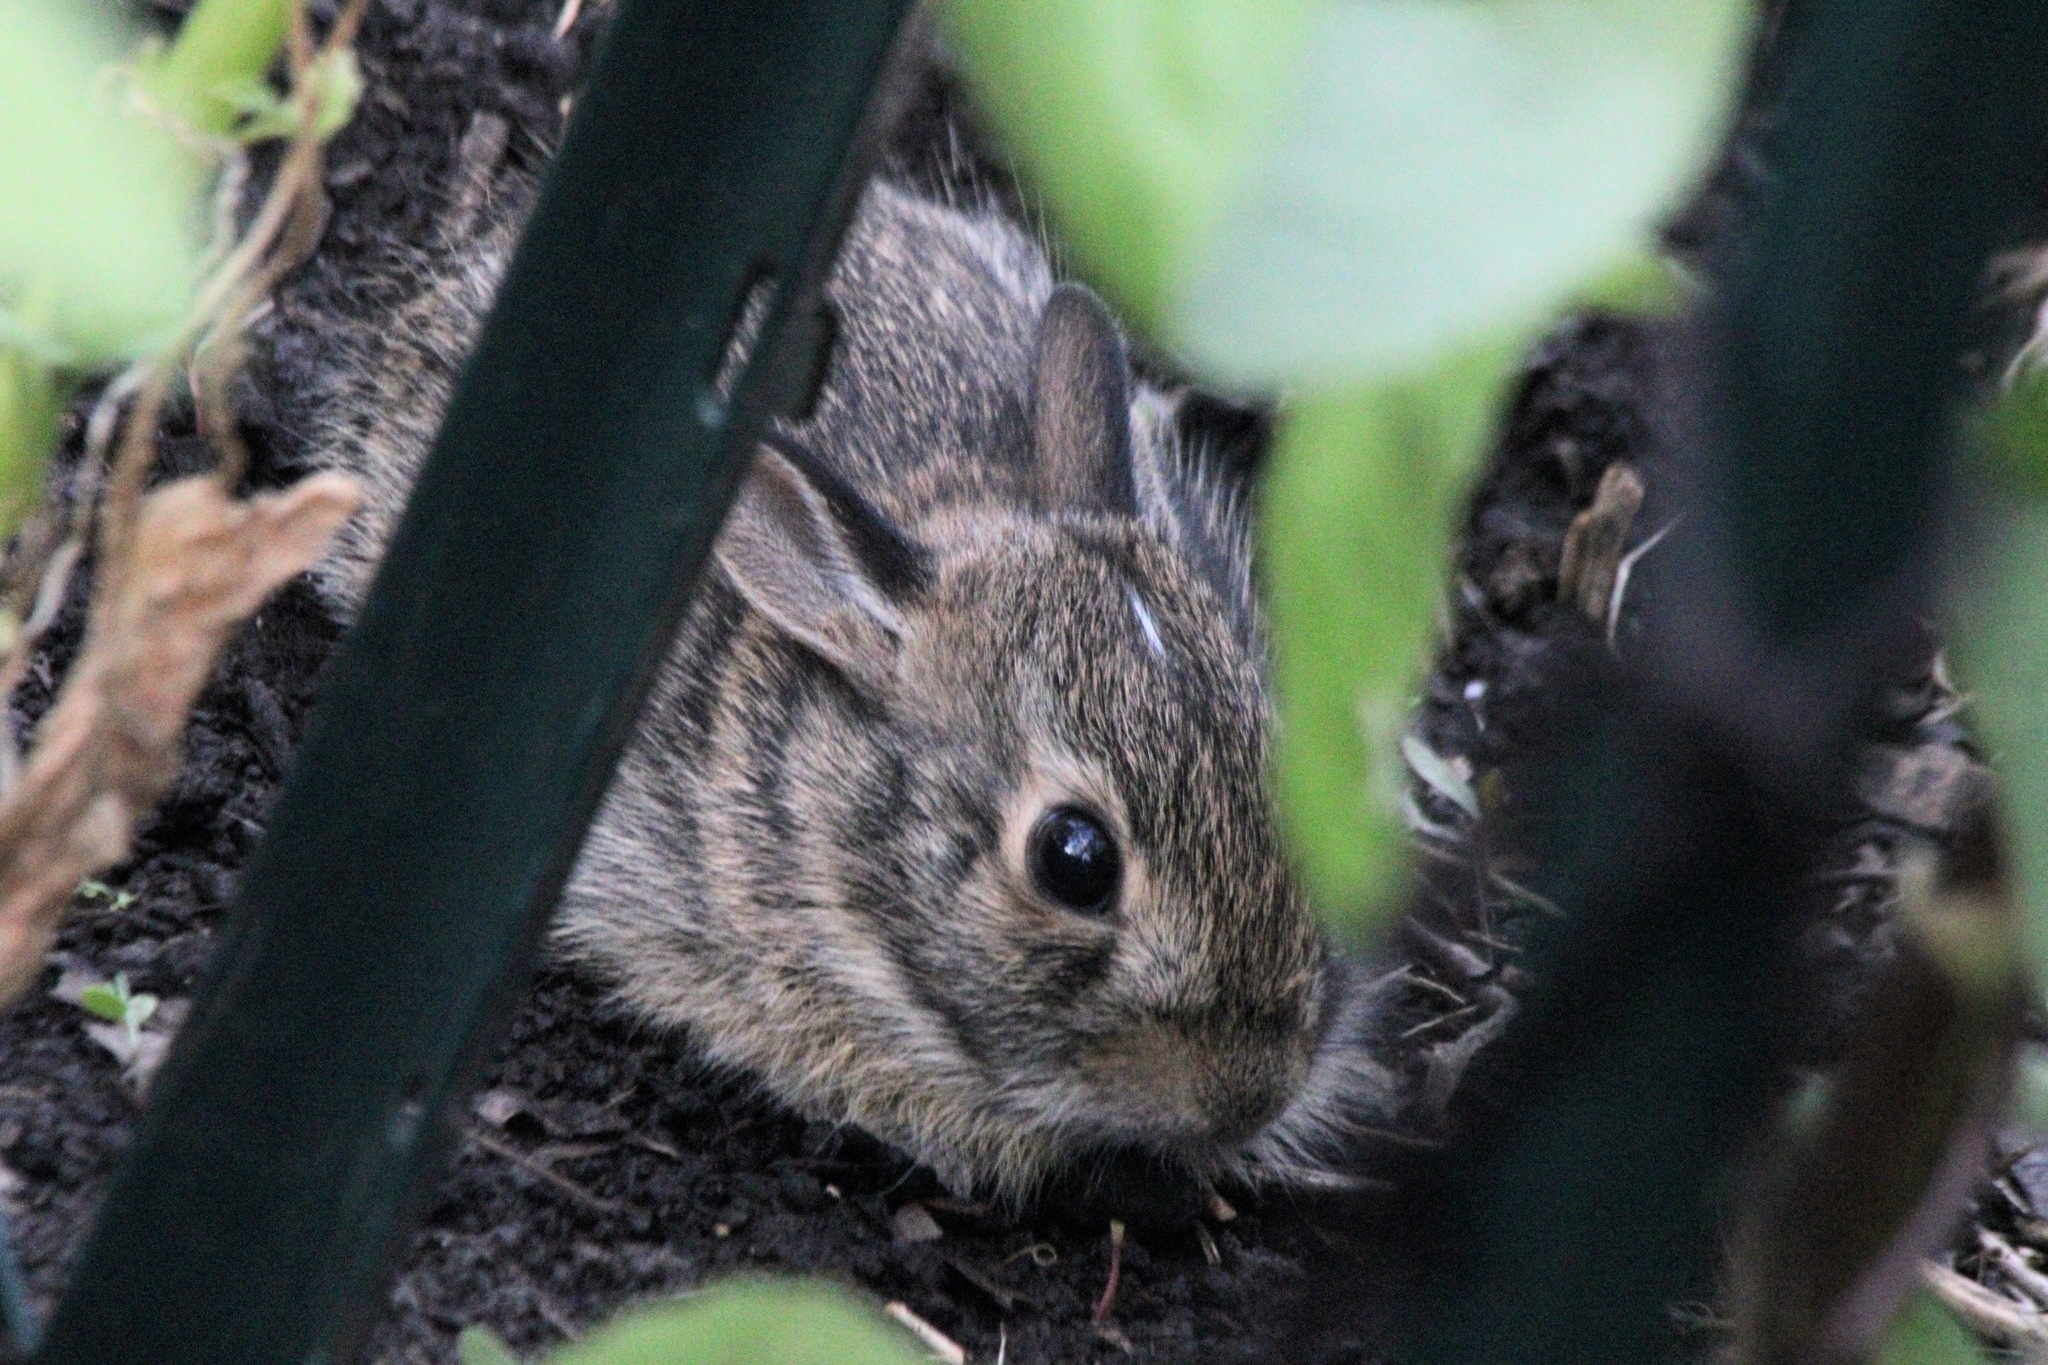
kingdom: Animalia
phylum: Chordata
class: Mammalia
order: Lagomorpha
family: Leporidae
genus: Sylvilagus
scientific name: Sylvilagus floridanus
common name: Eastern cottontail
